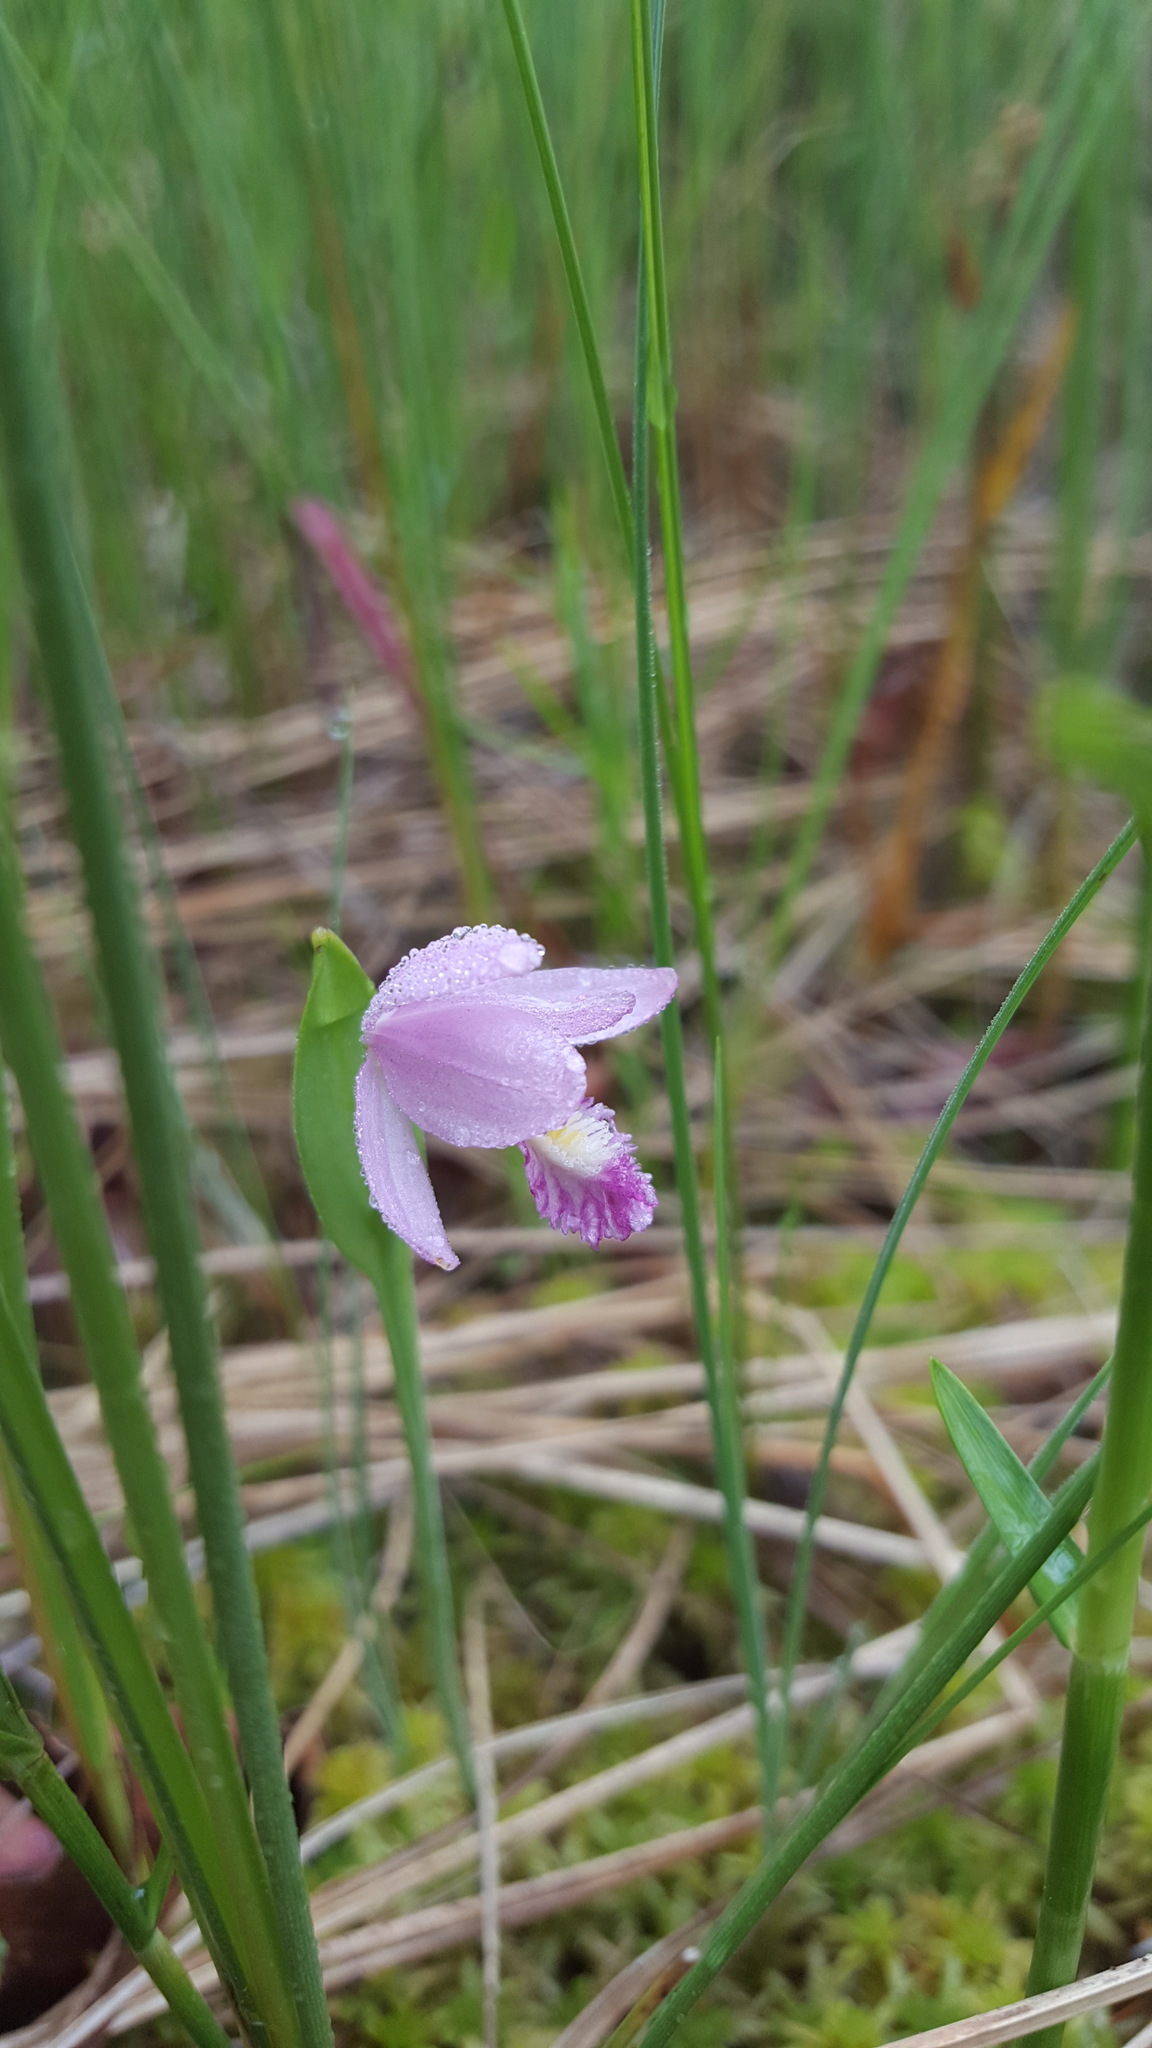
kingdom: Plantae
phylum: Tracheophyta
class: Liliopsida
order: Asparagales
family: Orchidaceae
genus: Pogonia
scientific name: Pogonia ophioglossoides
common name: Rose pogonia
